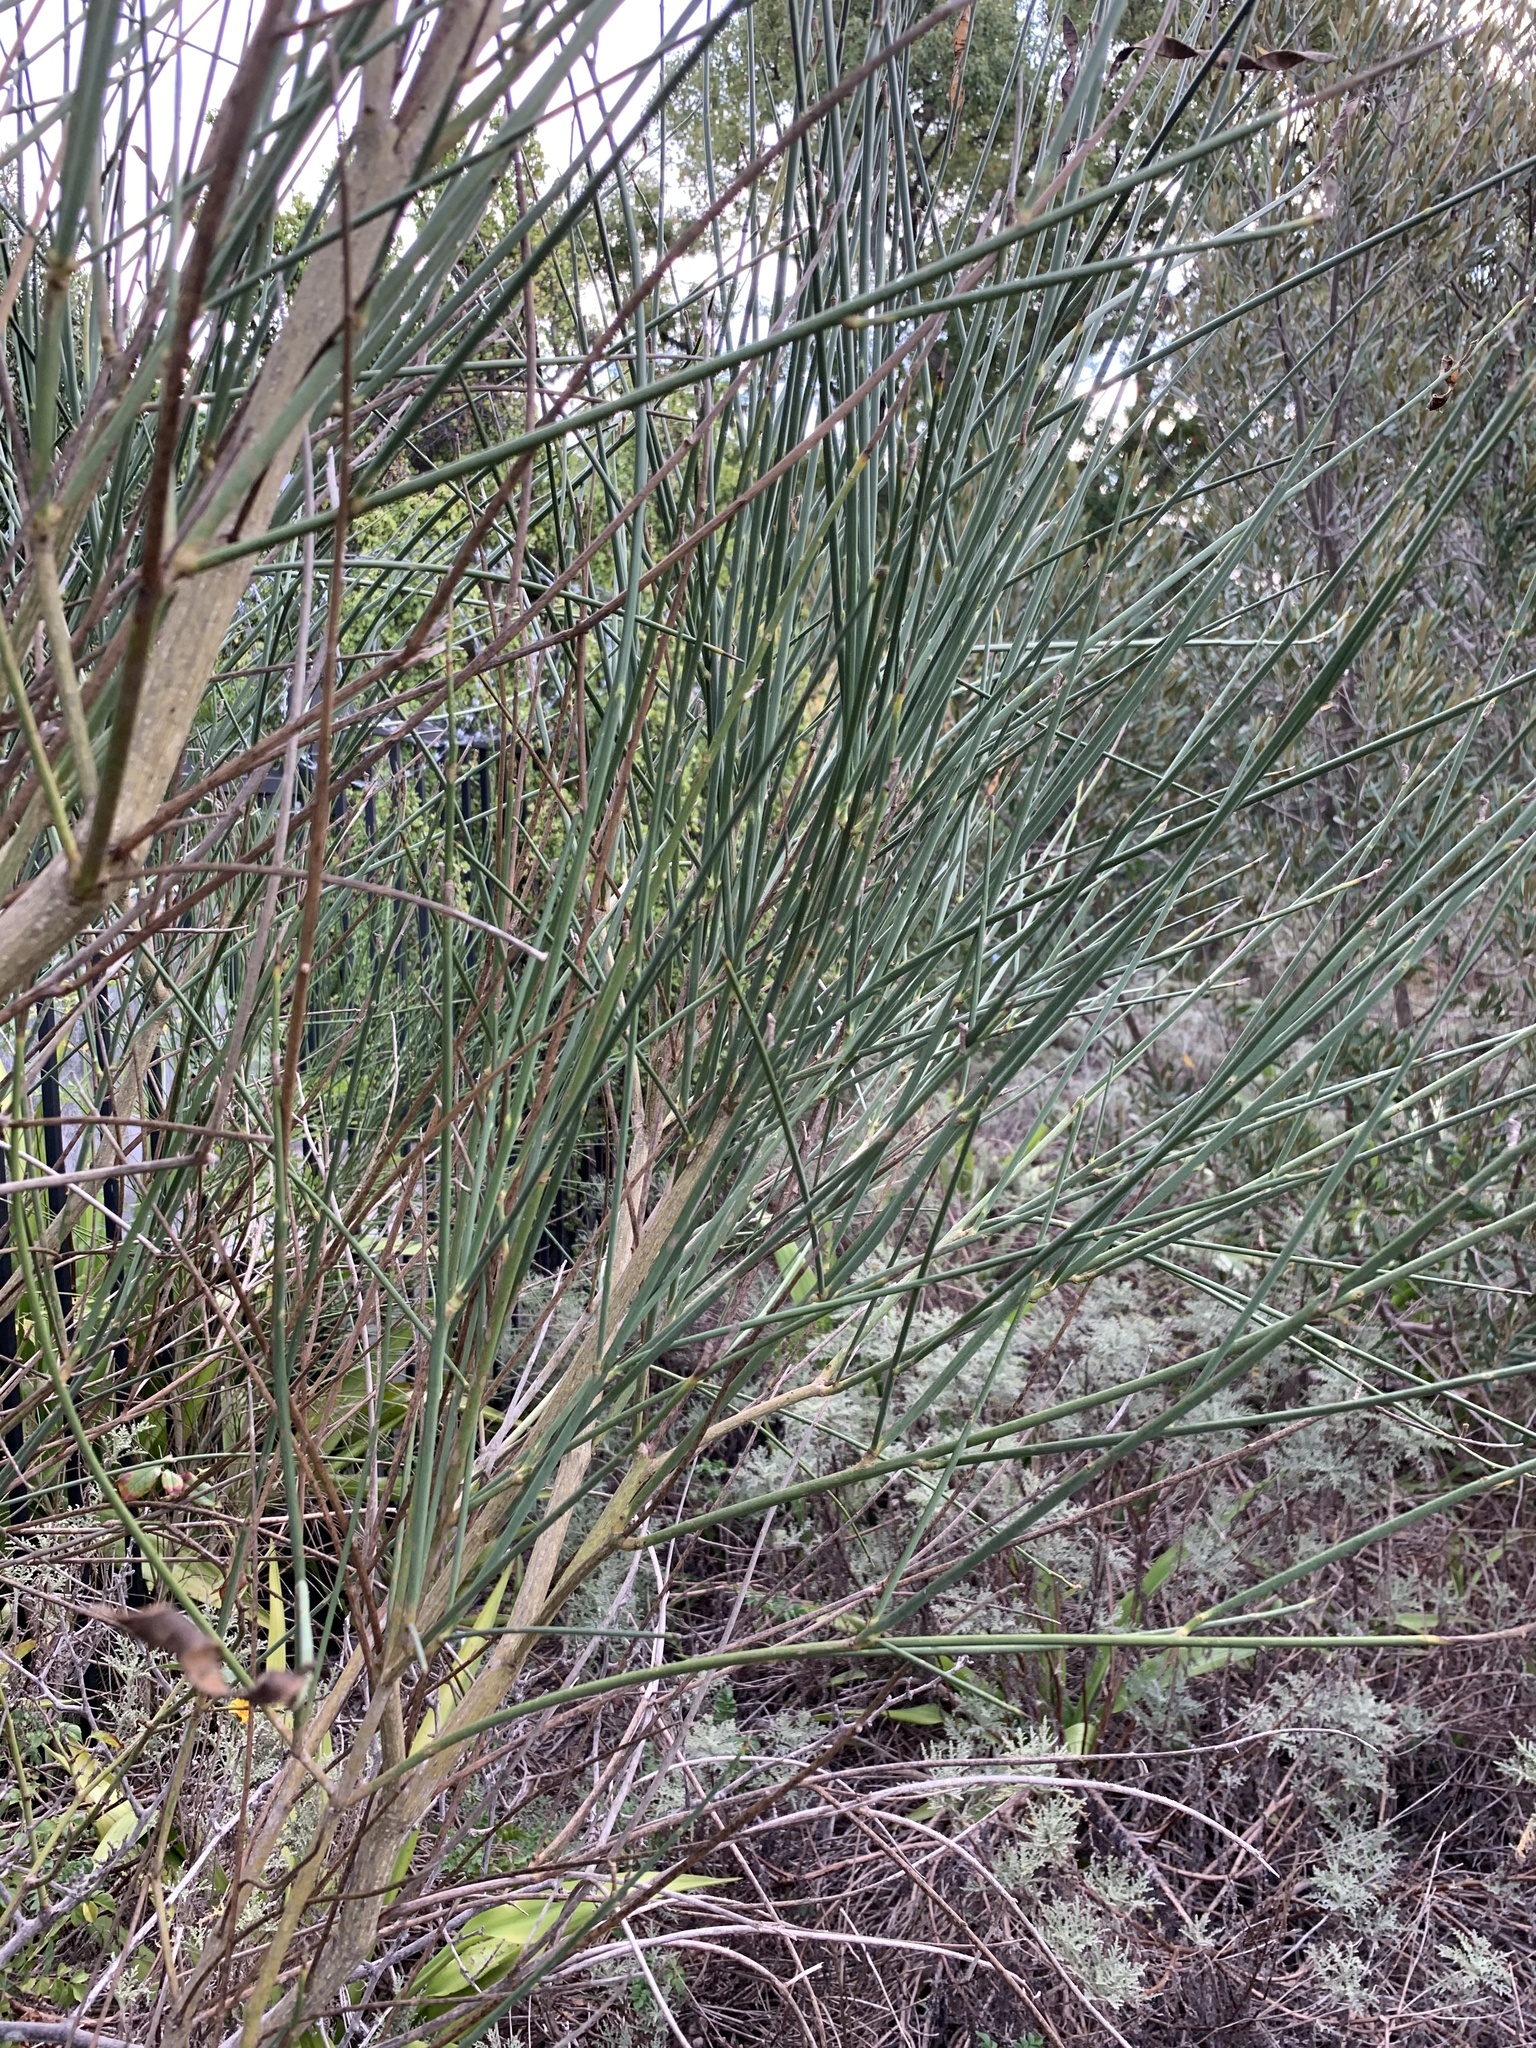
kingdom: Plantae
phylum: Tracheophyta
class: Magnoliopsida
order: Fabales
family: Fabaceae
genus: Spartium
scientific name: Spartium junceum
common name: Spanish broom
